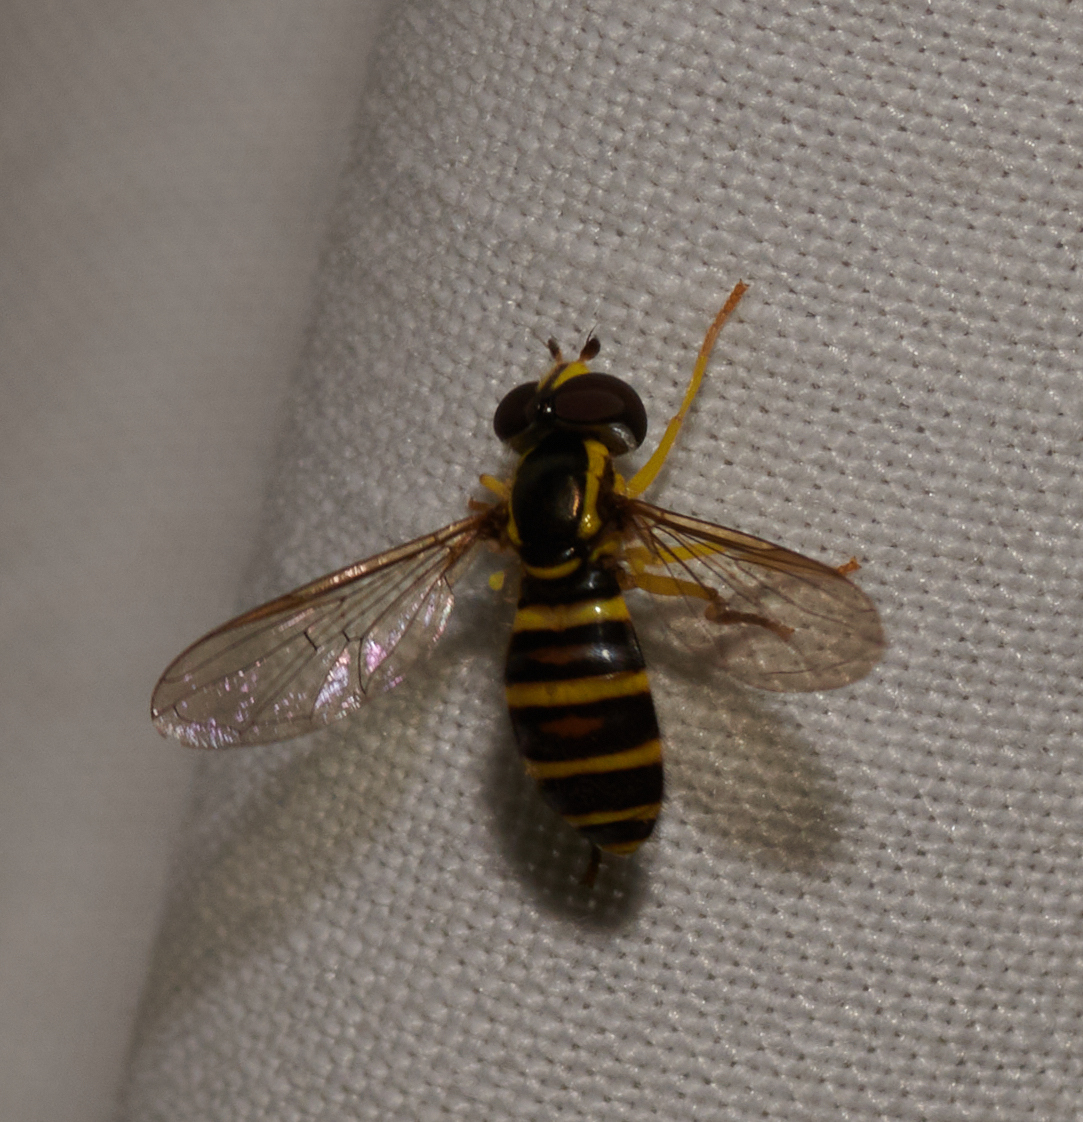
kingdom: Animalia
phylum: Arthropoda
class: Insecta
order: Diptera
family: Syrphidae
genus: Philhelius
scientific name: Philhelius flavipes
